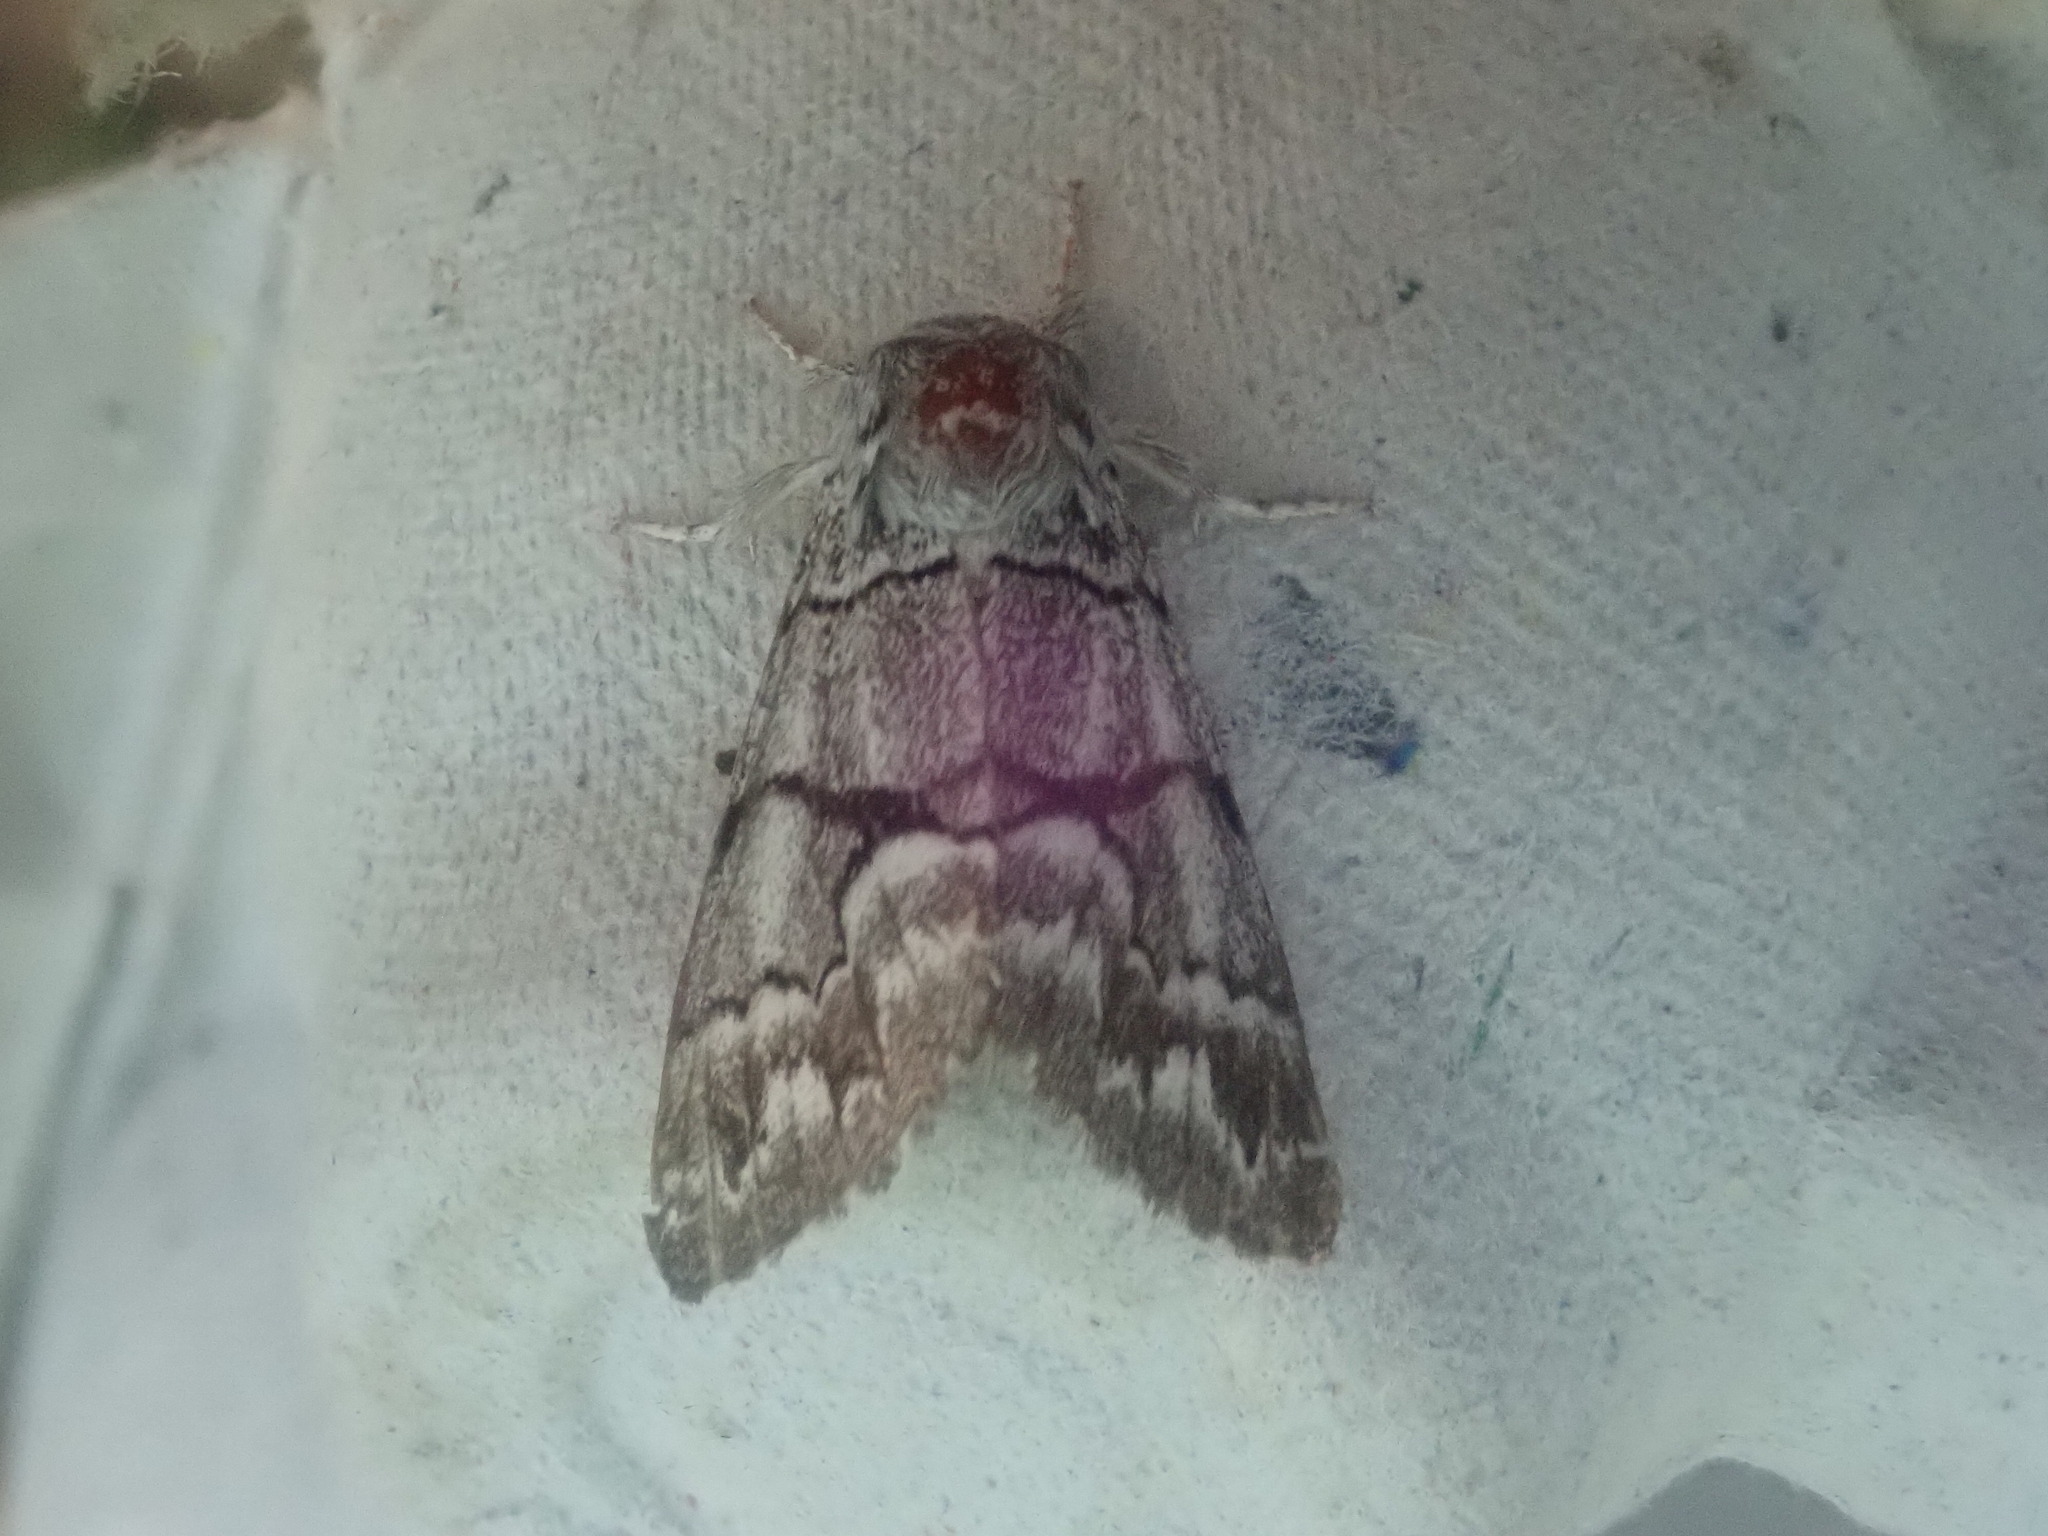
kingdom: Animalia
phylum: Arthropoda
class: Insecta
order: Lepidoptera
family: Noctuidae
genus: Panthea
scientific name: Panthea furcilla
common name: Eastern panthea moth
